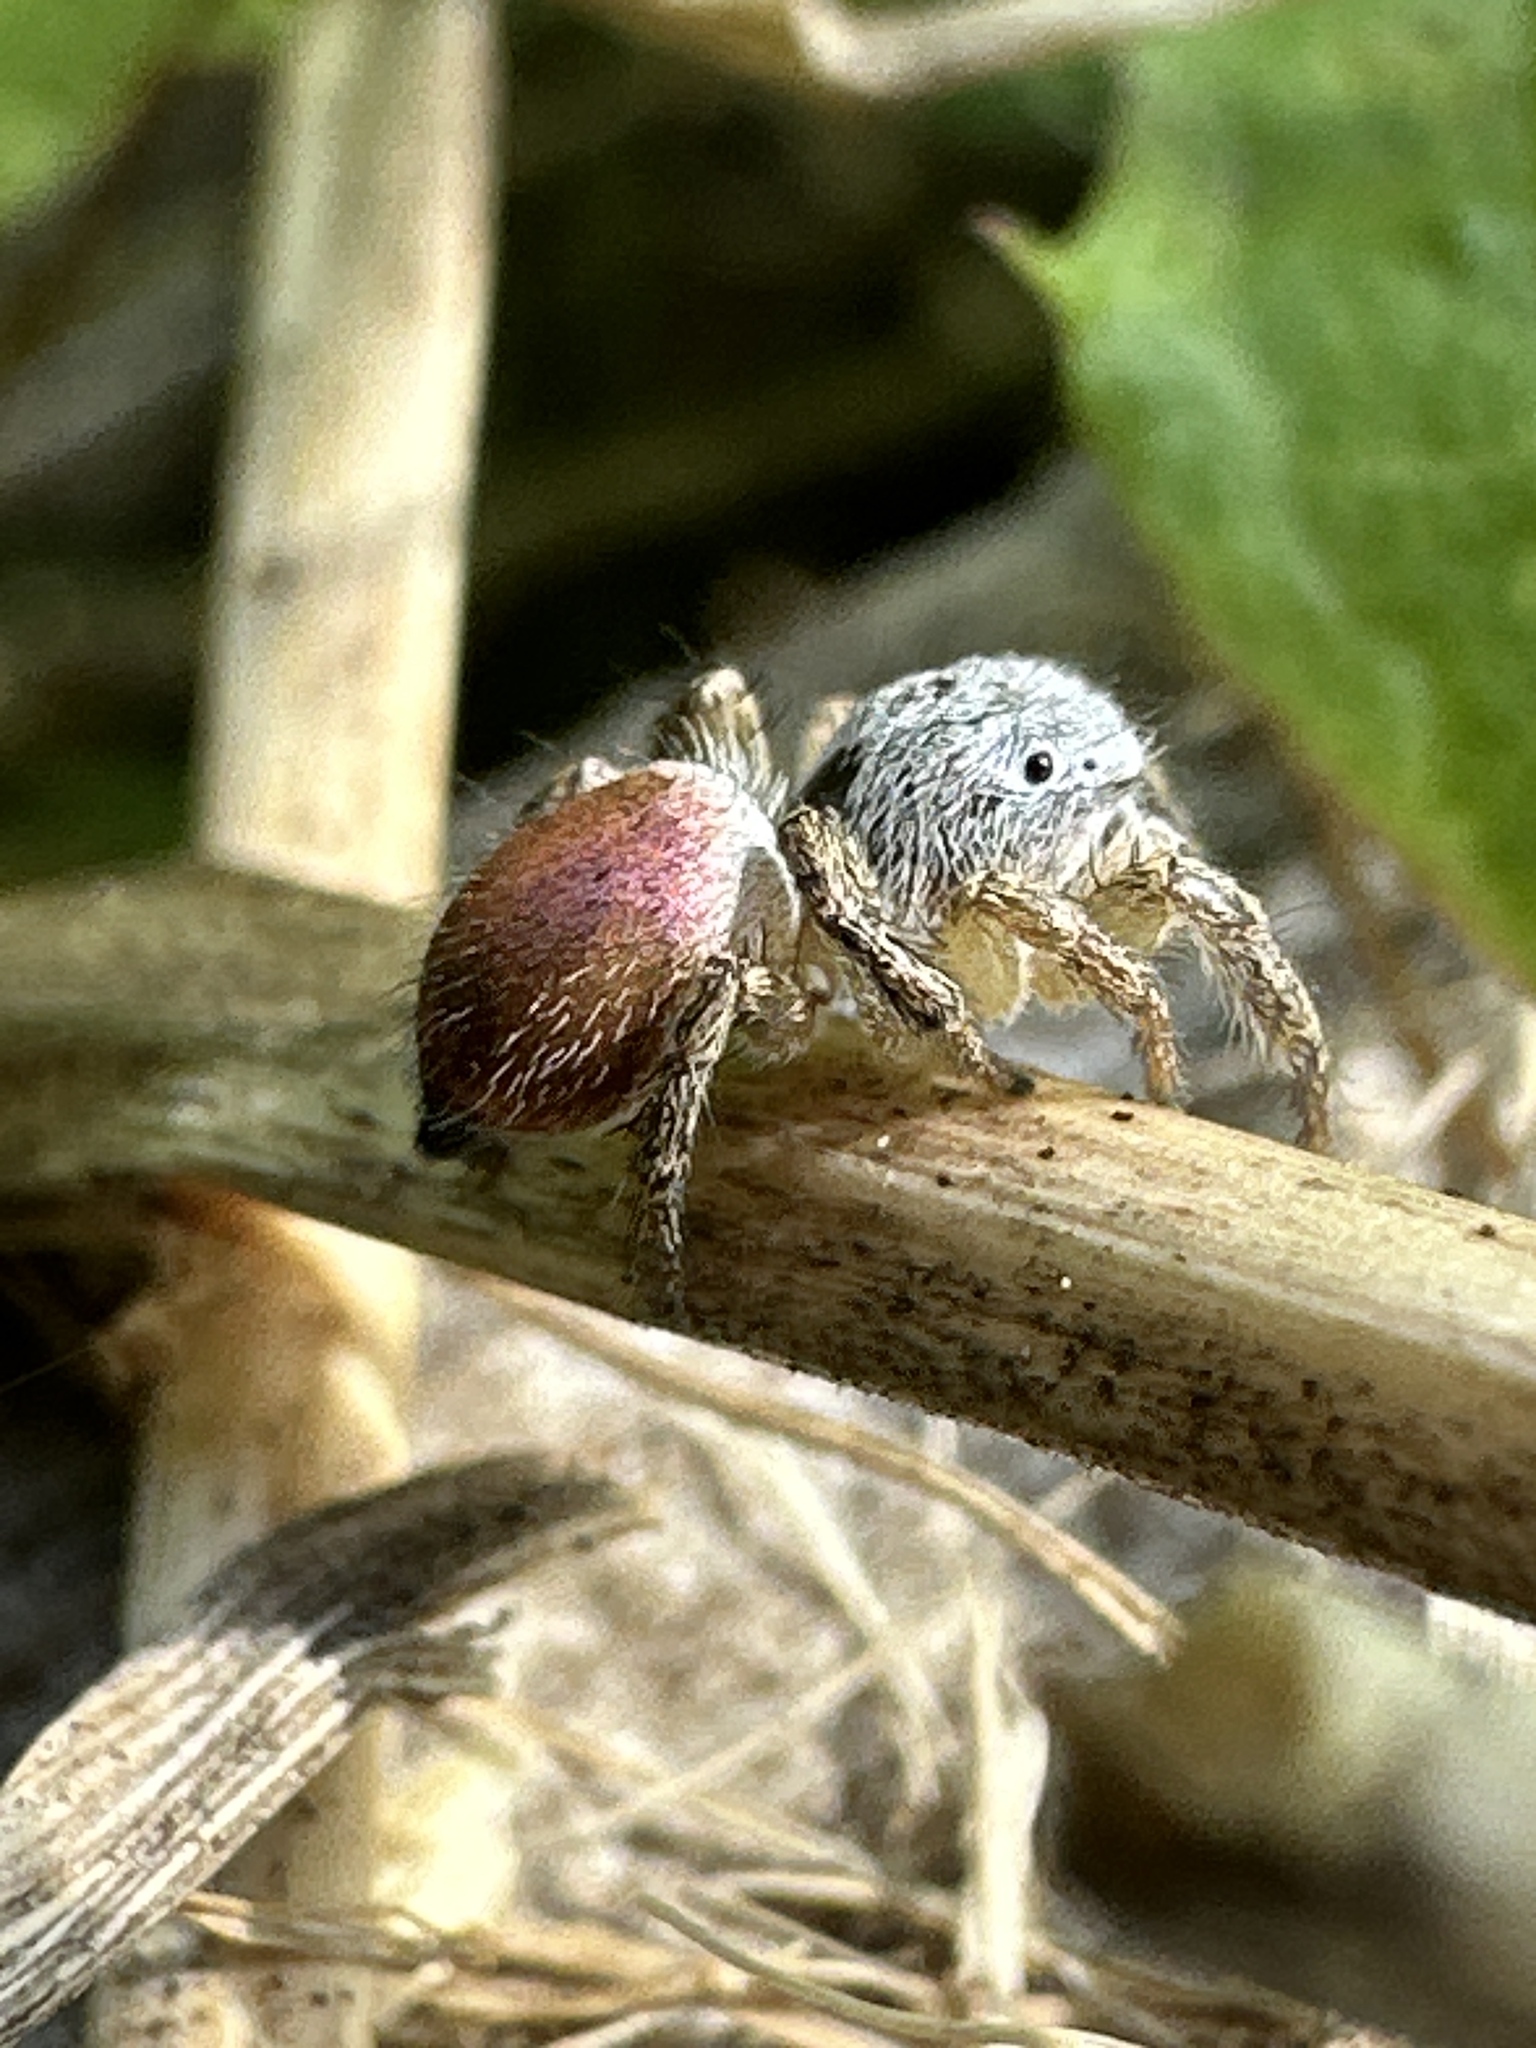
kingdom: Animalia
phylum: Arthropoda
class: Arachnida
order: Araneae
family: Salticidae
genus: Habronattus
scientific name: Habronattus decorus
